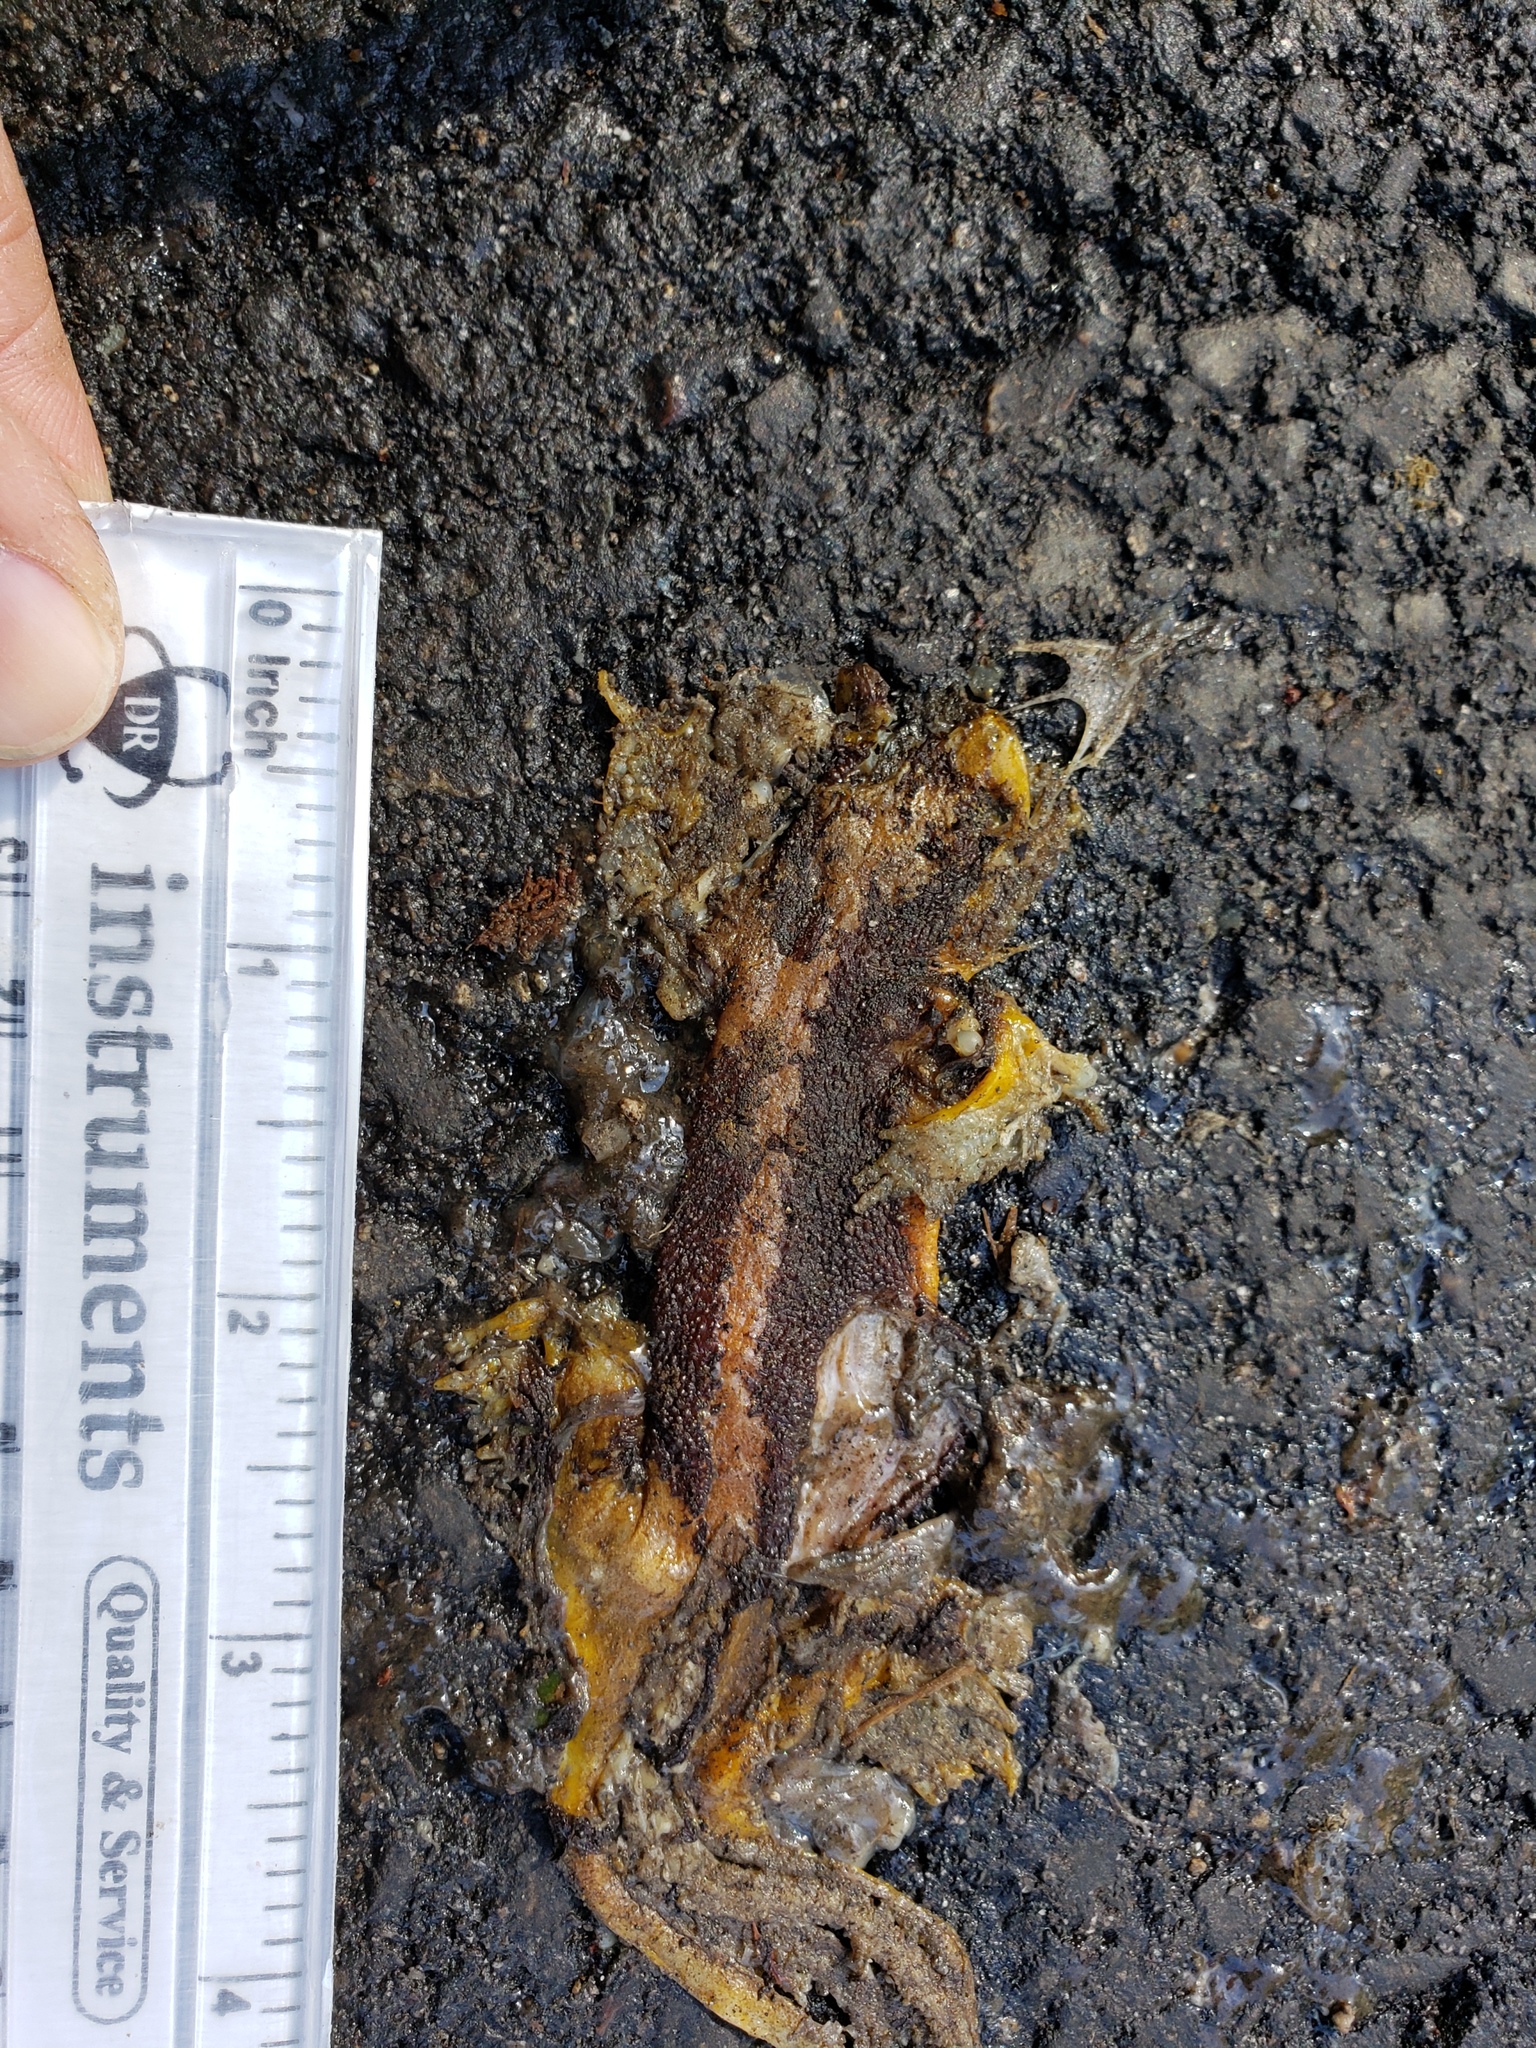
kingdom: Animalia
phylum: Chordata
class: Amphibia
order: Caudata
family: Salamandridae
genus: Taricha
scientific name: Taricha
